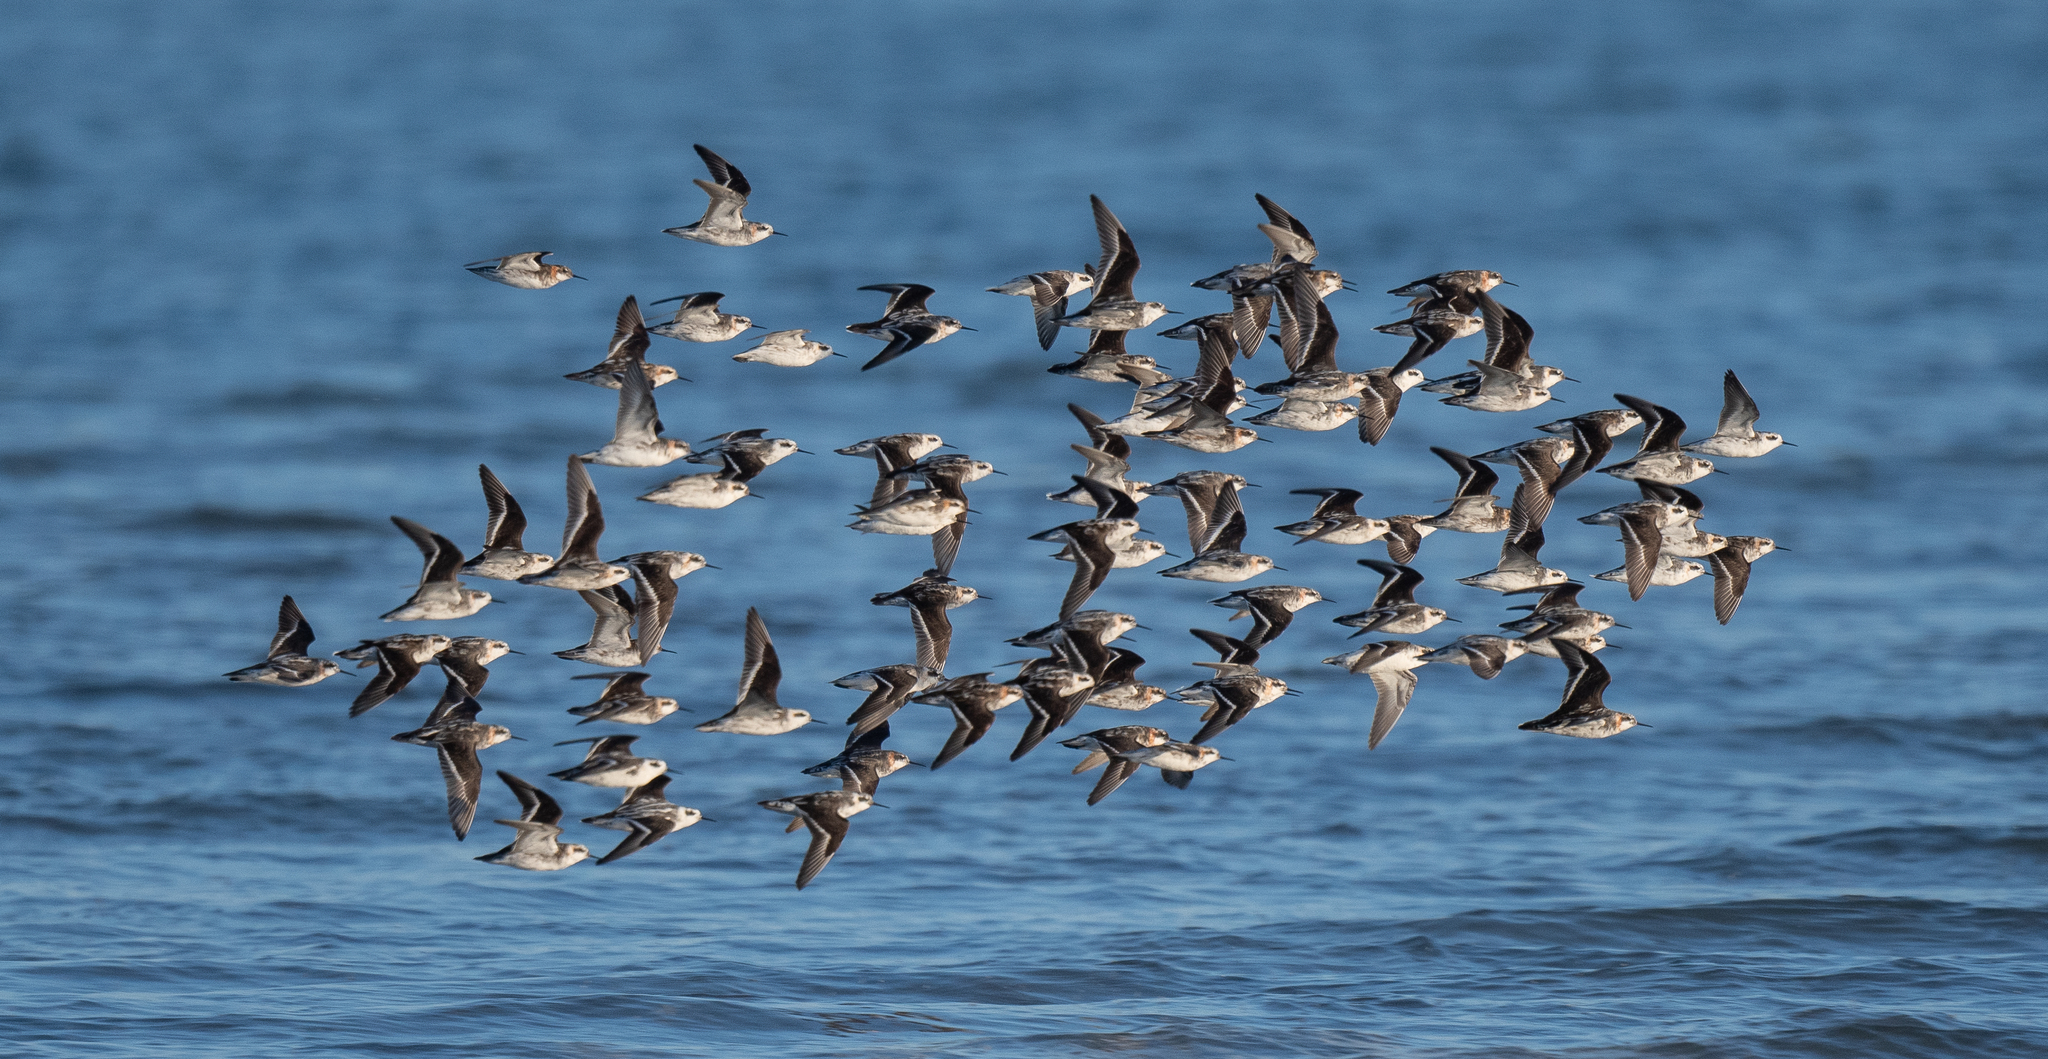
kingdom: Animalia
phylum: Chordata
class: Aves
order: Charadriiformes
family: Scolopacidae
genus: Phalaropus
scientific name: Phalaropus lobatus
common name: Red-necked phalarope
